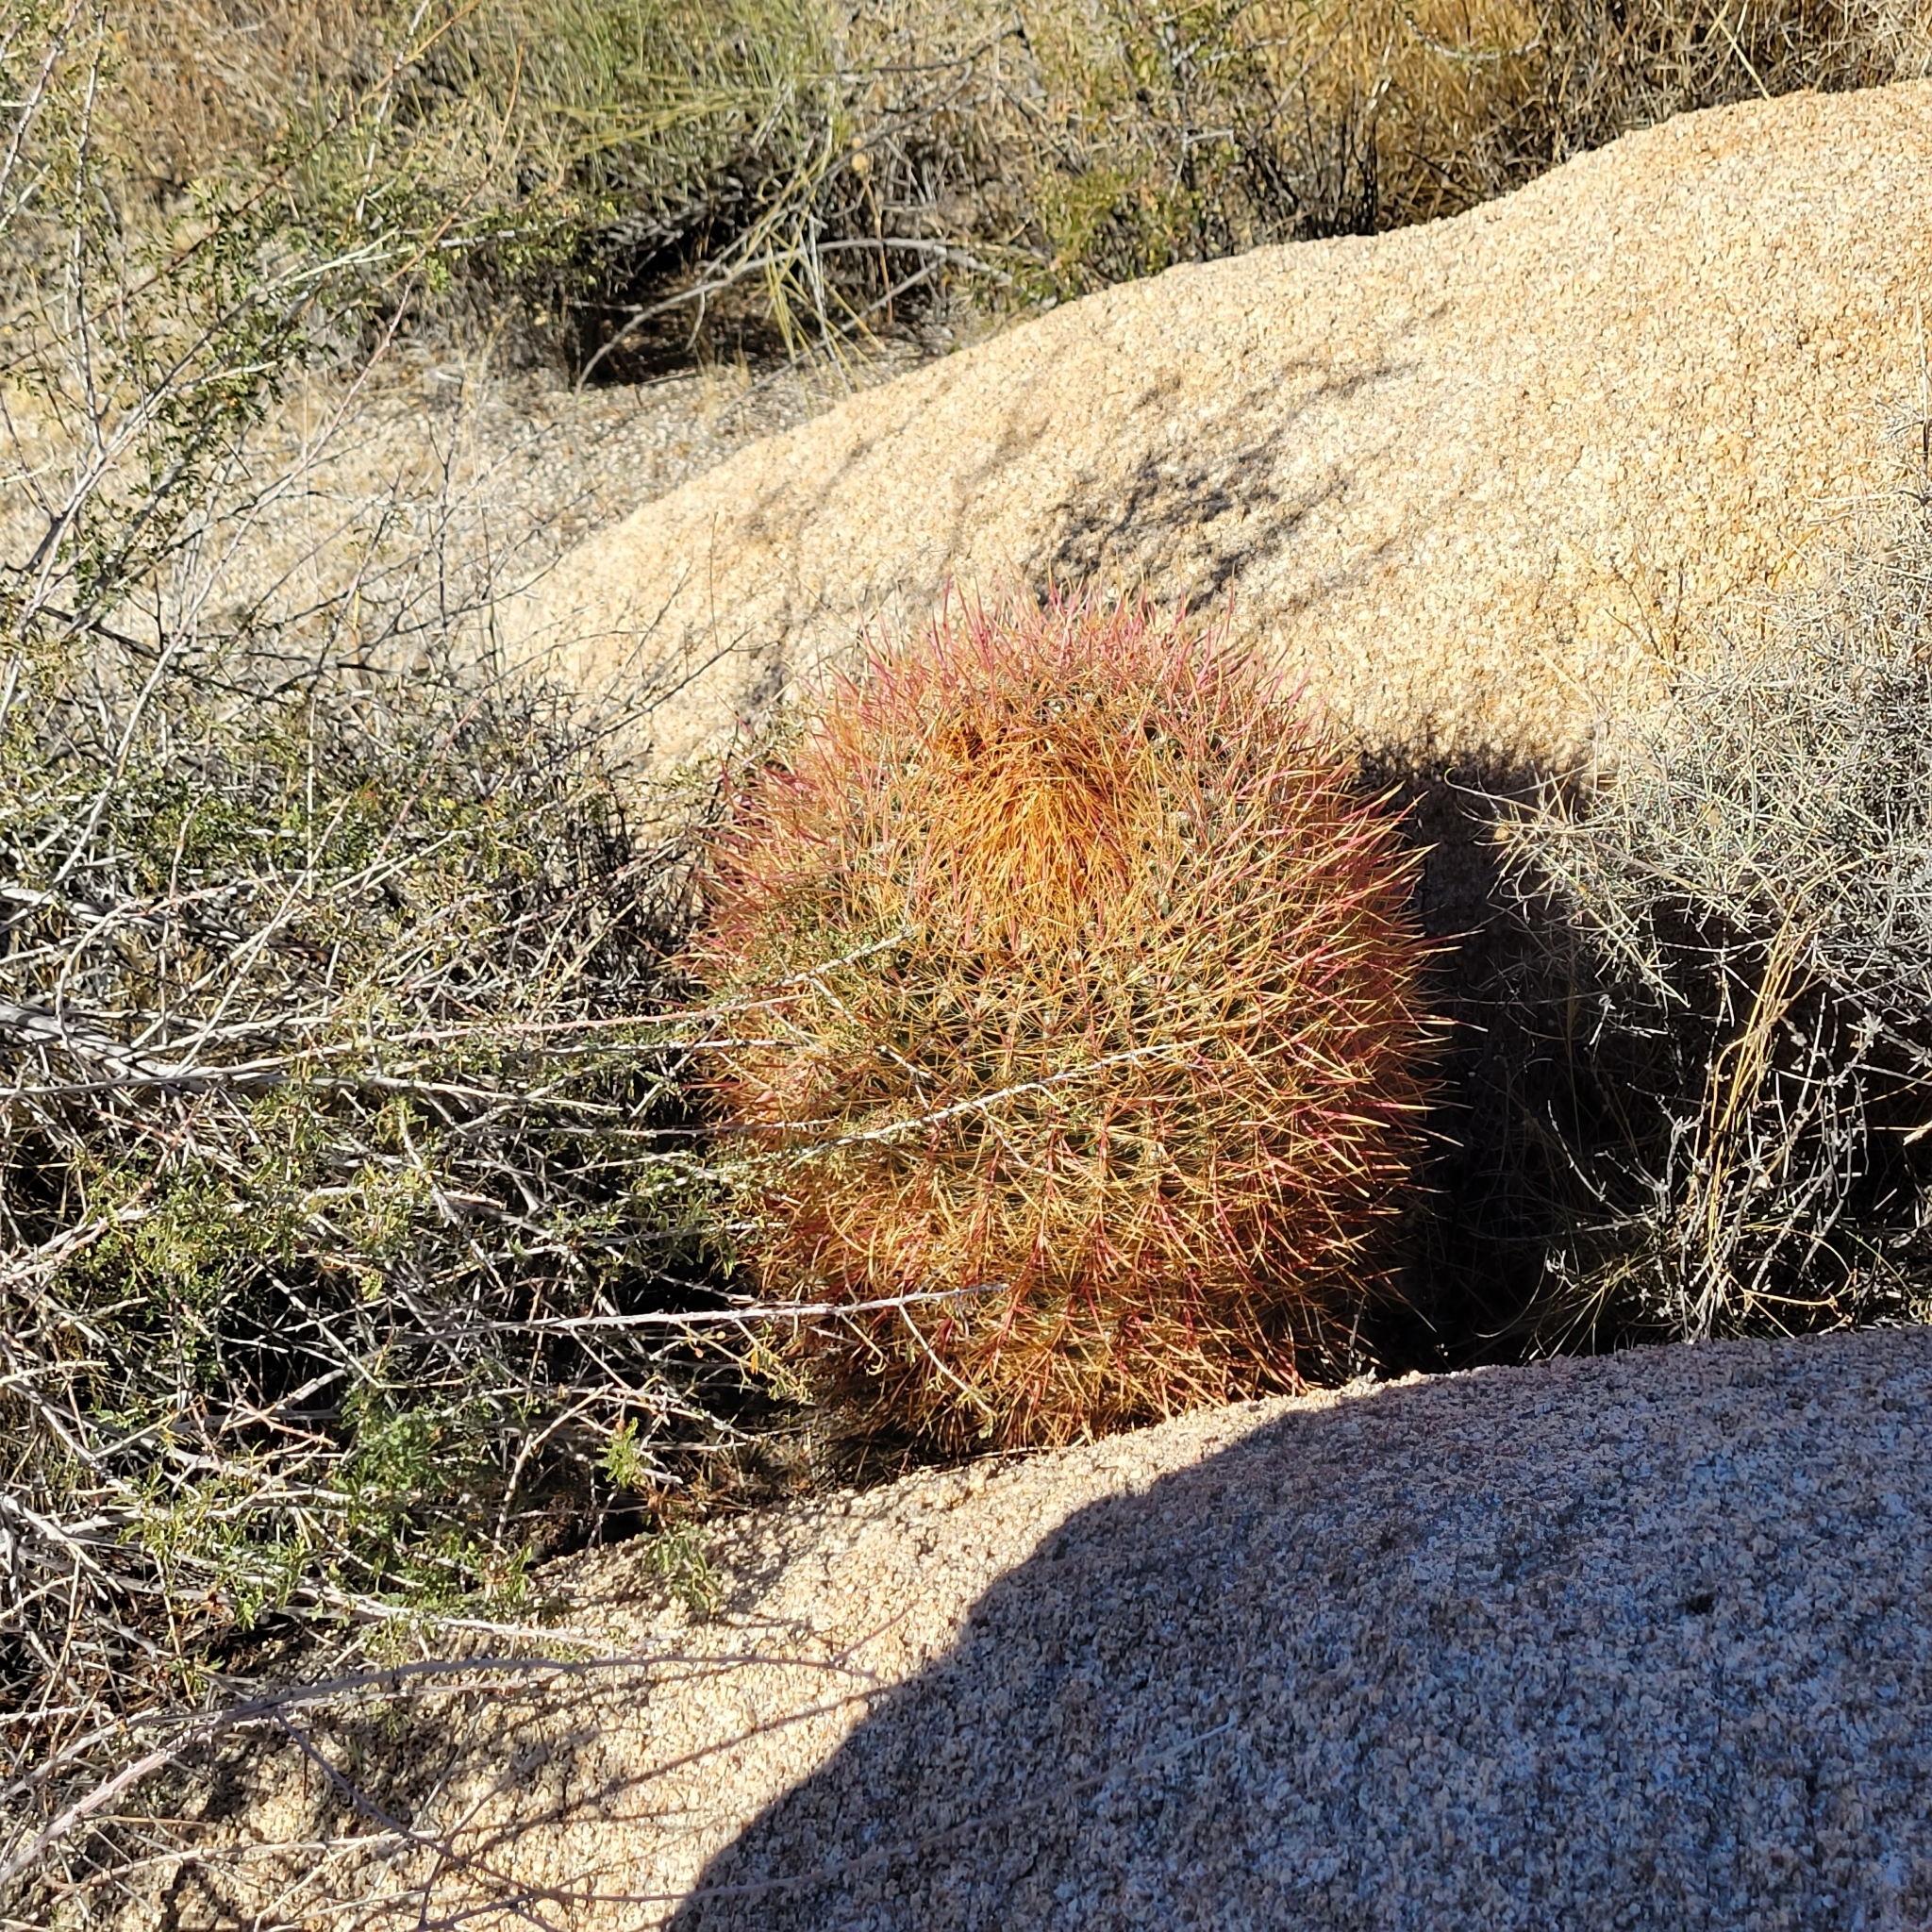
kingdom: Plantae
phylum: Tracheophyta
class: Magnoliopsida
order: Caryophyllales
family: Cactaceae
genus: Ferocactus
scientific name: Ferocactus cylindraceus
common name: California barrel cactus
